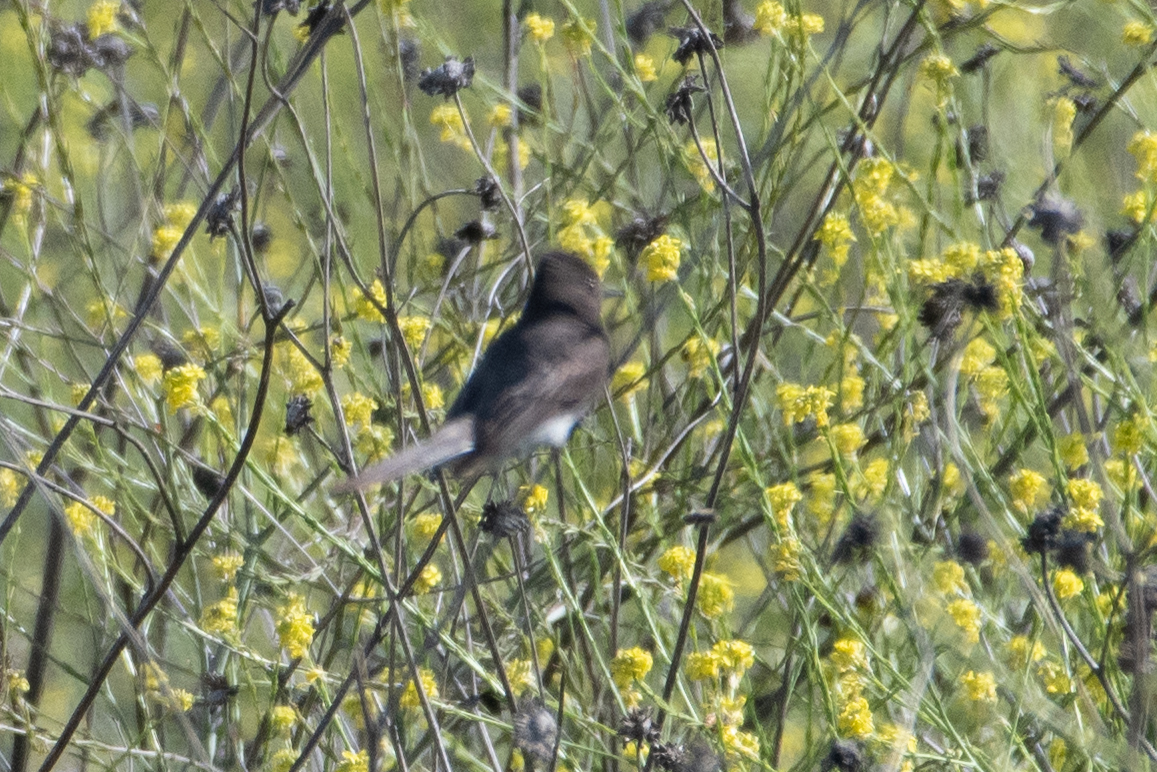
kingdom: Animalia
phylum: Chordata
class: Aves
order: Passeriformes
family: Tyrannidae
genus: Sayornis
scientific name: Sayornis nigricans
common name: Black phoebe
